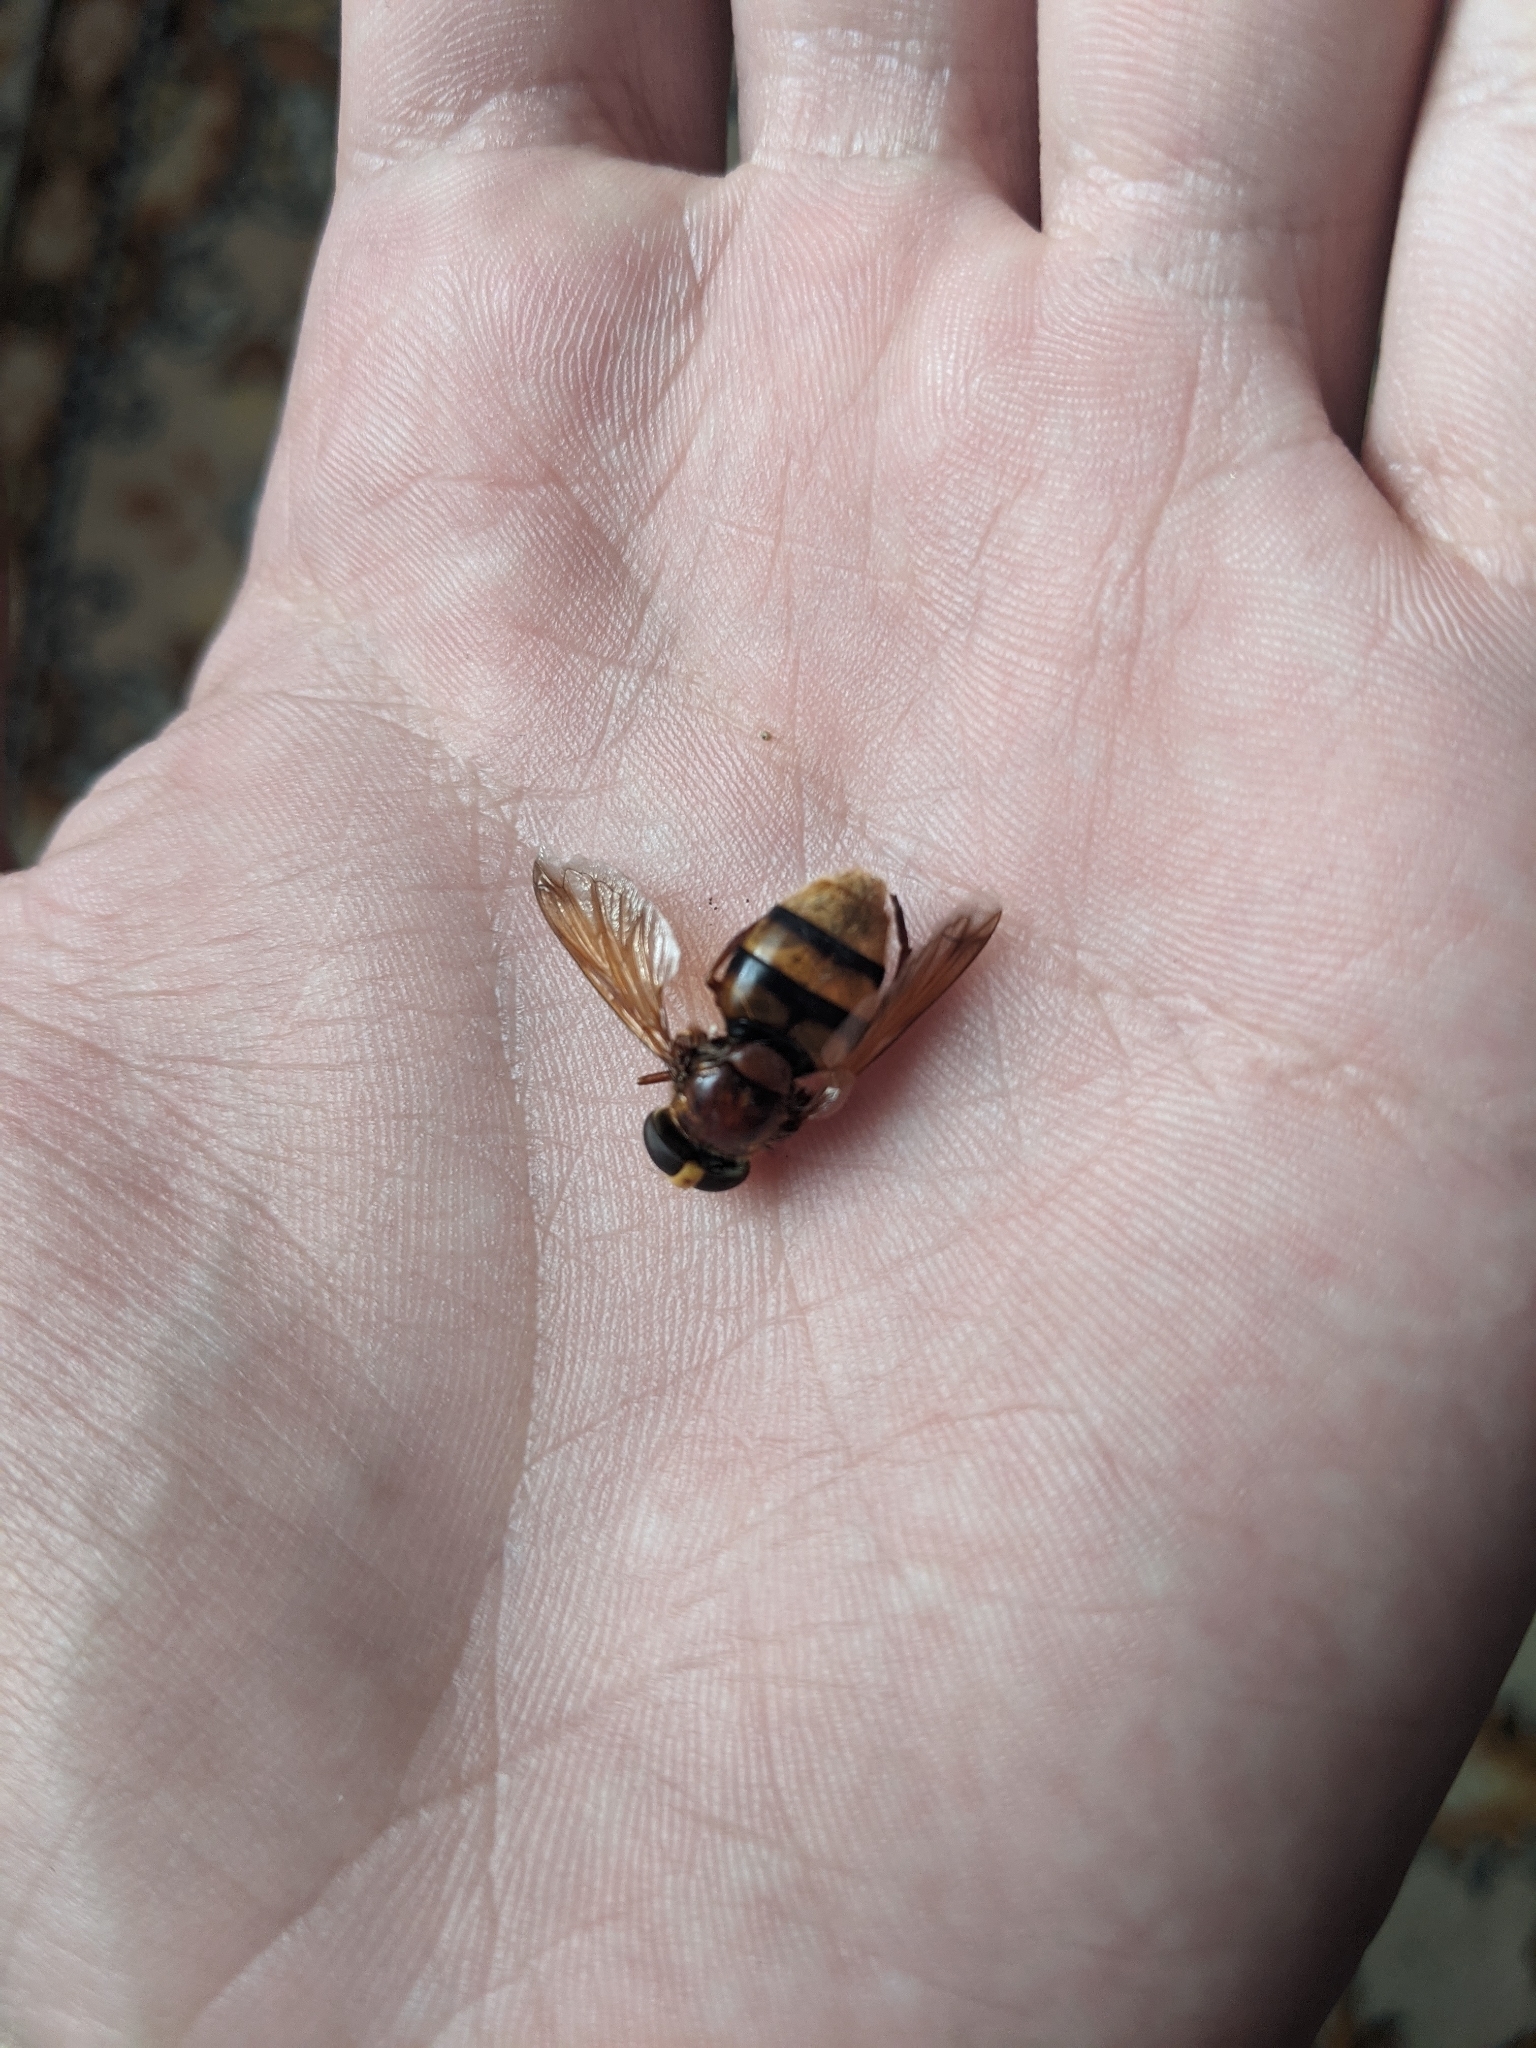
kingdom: Animalia
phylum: Arthropoda
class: Insecta
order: Diptera
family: Syrphidae
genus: Volucella
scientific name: Volucella zonaria
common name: Hornet hoverfly
